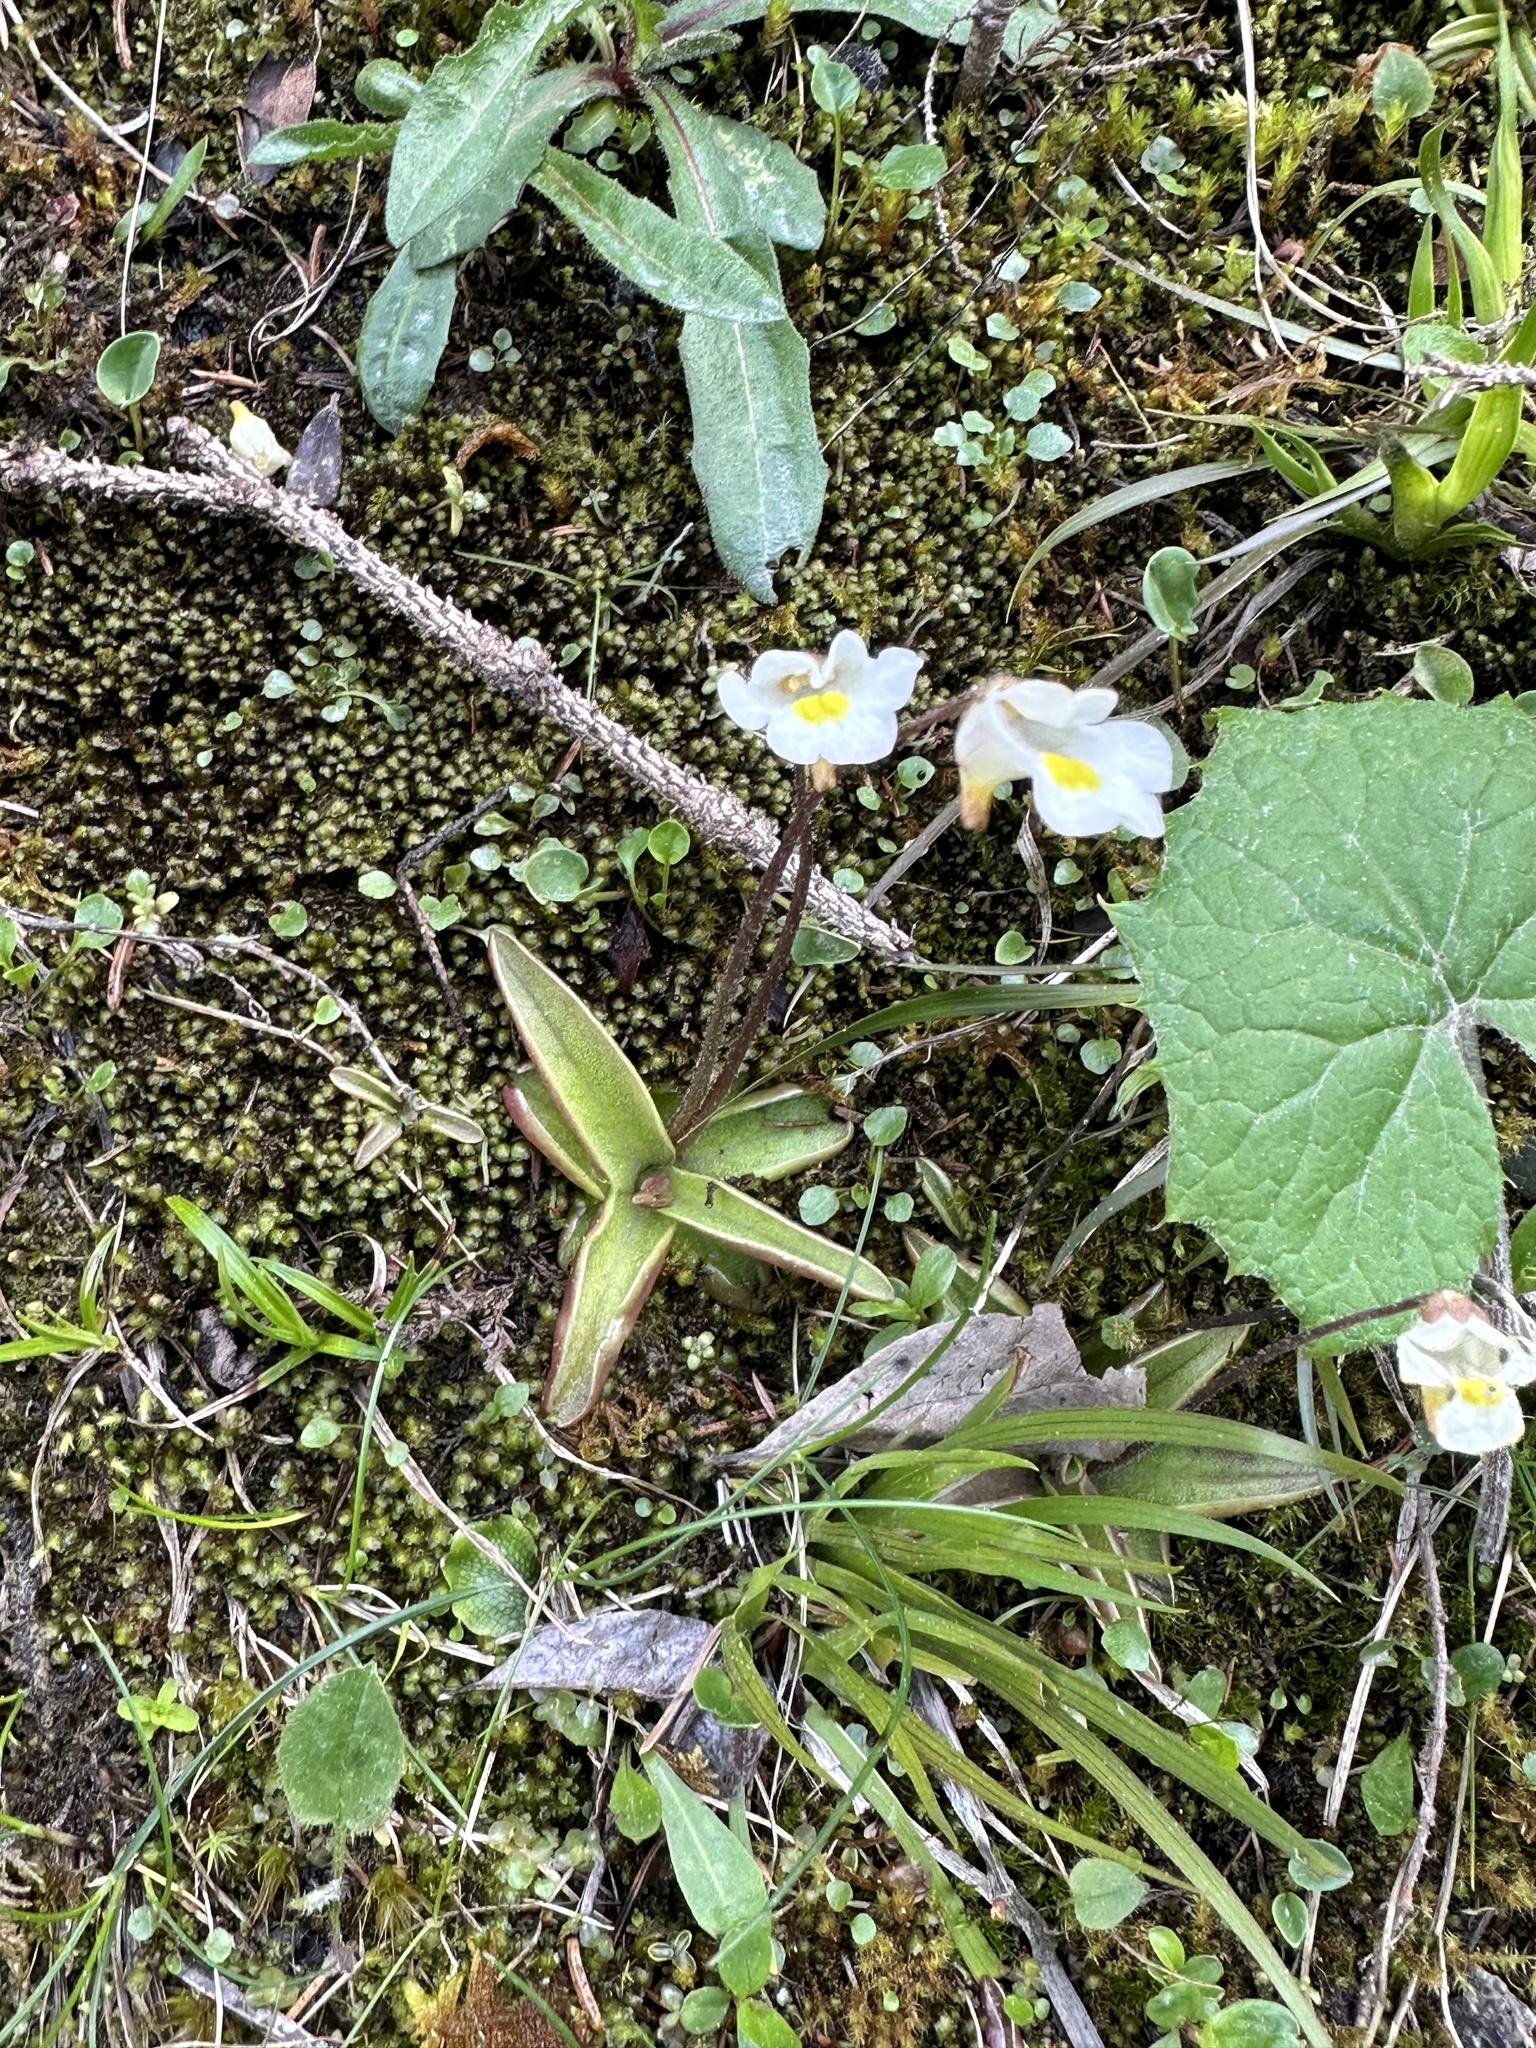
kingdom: Plantae
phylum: Tracheophyta
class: Magnoliopsida
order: Lamiales
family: Lentibulariaceae
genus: Pinguicula
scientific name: Pinguicula alpina
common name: Alpine butterwort
